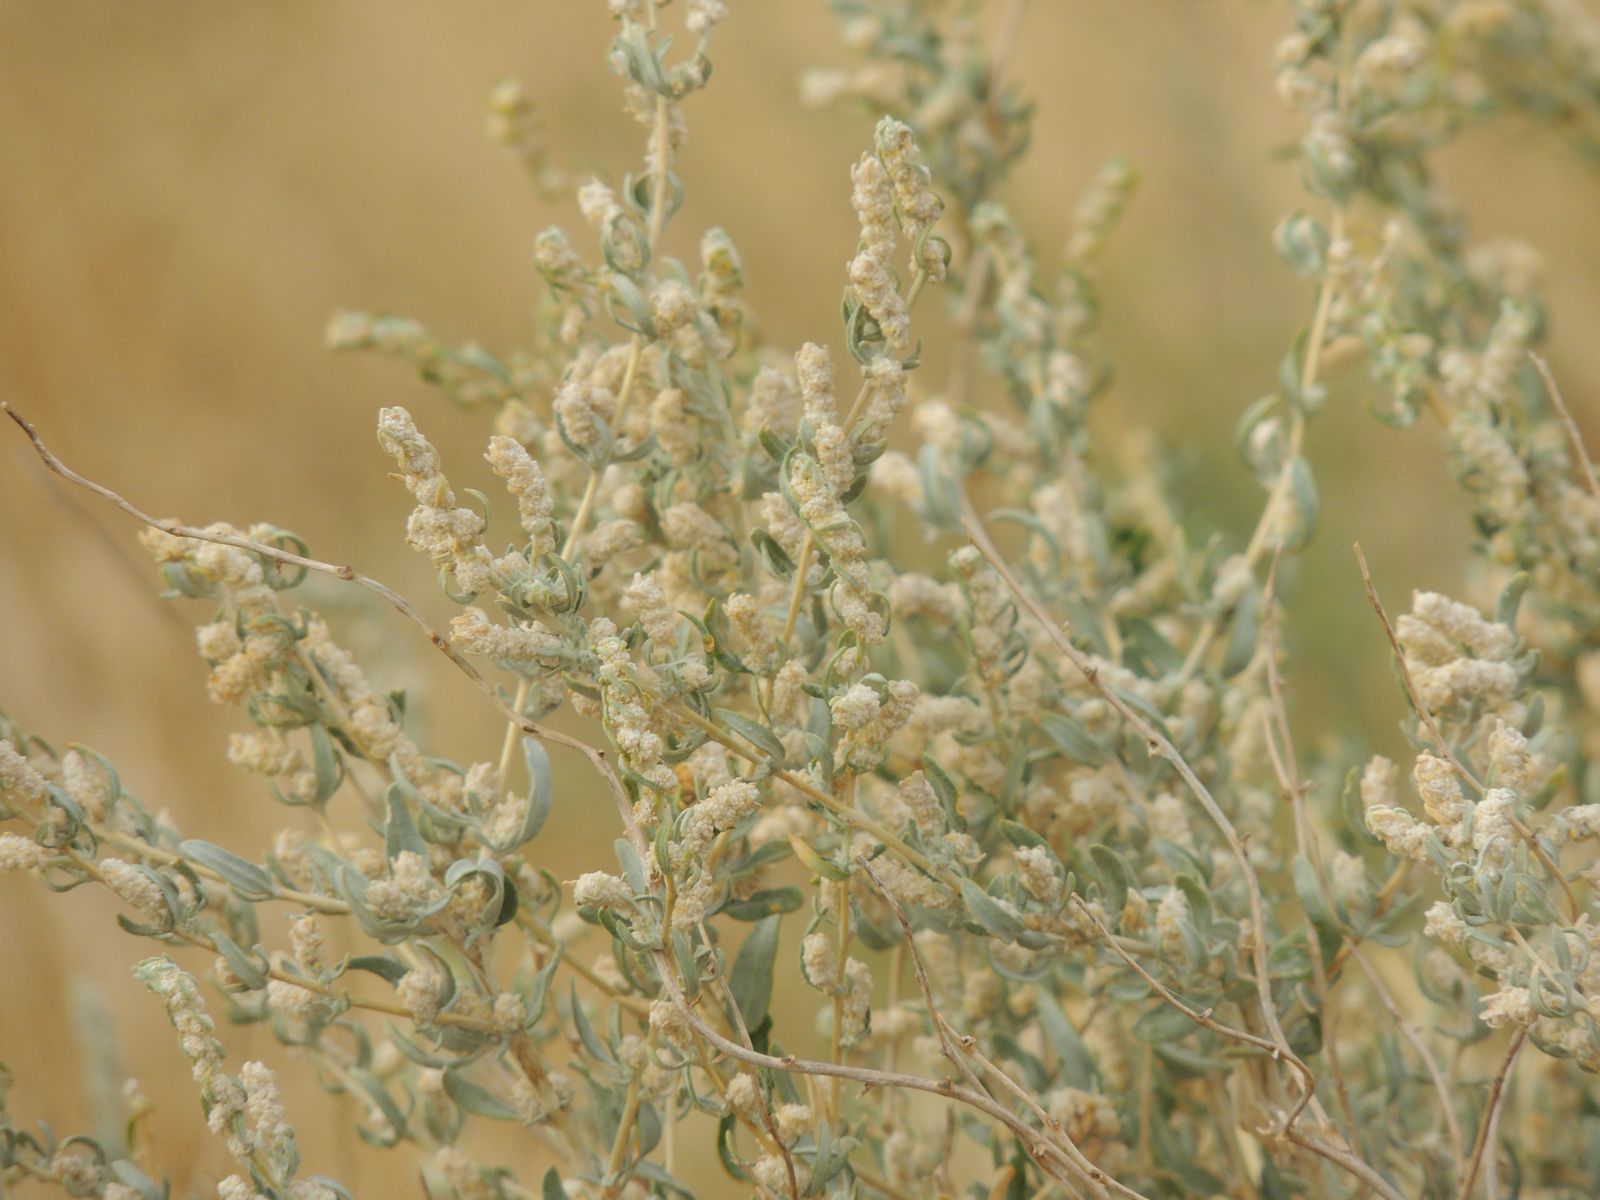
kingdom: Plantae
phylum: Tracheophyta
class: Magnoliopsida
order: Caryophyllales
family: Amaranthaceae
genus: Krascheninnikovia
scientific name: Krascheninnikovia ceratoides
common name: Pamirian winterfat
